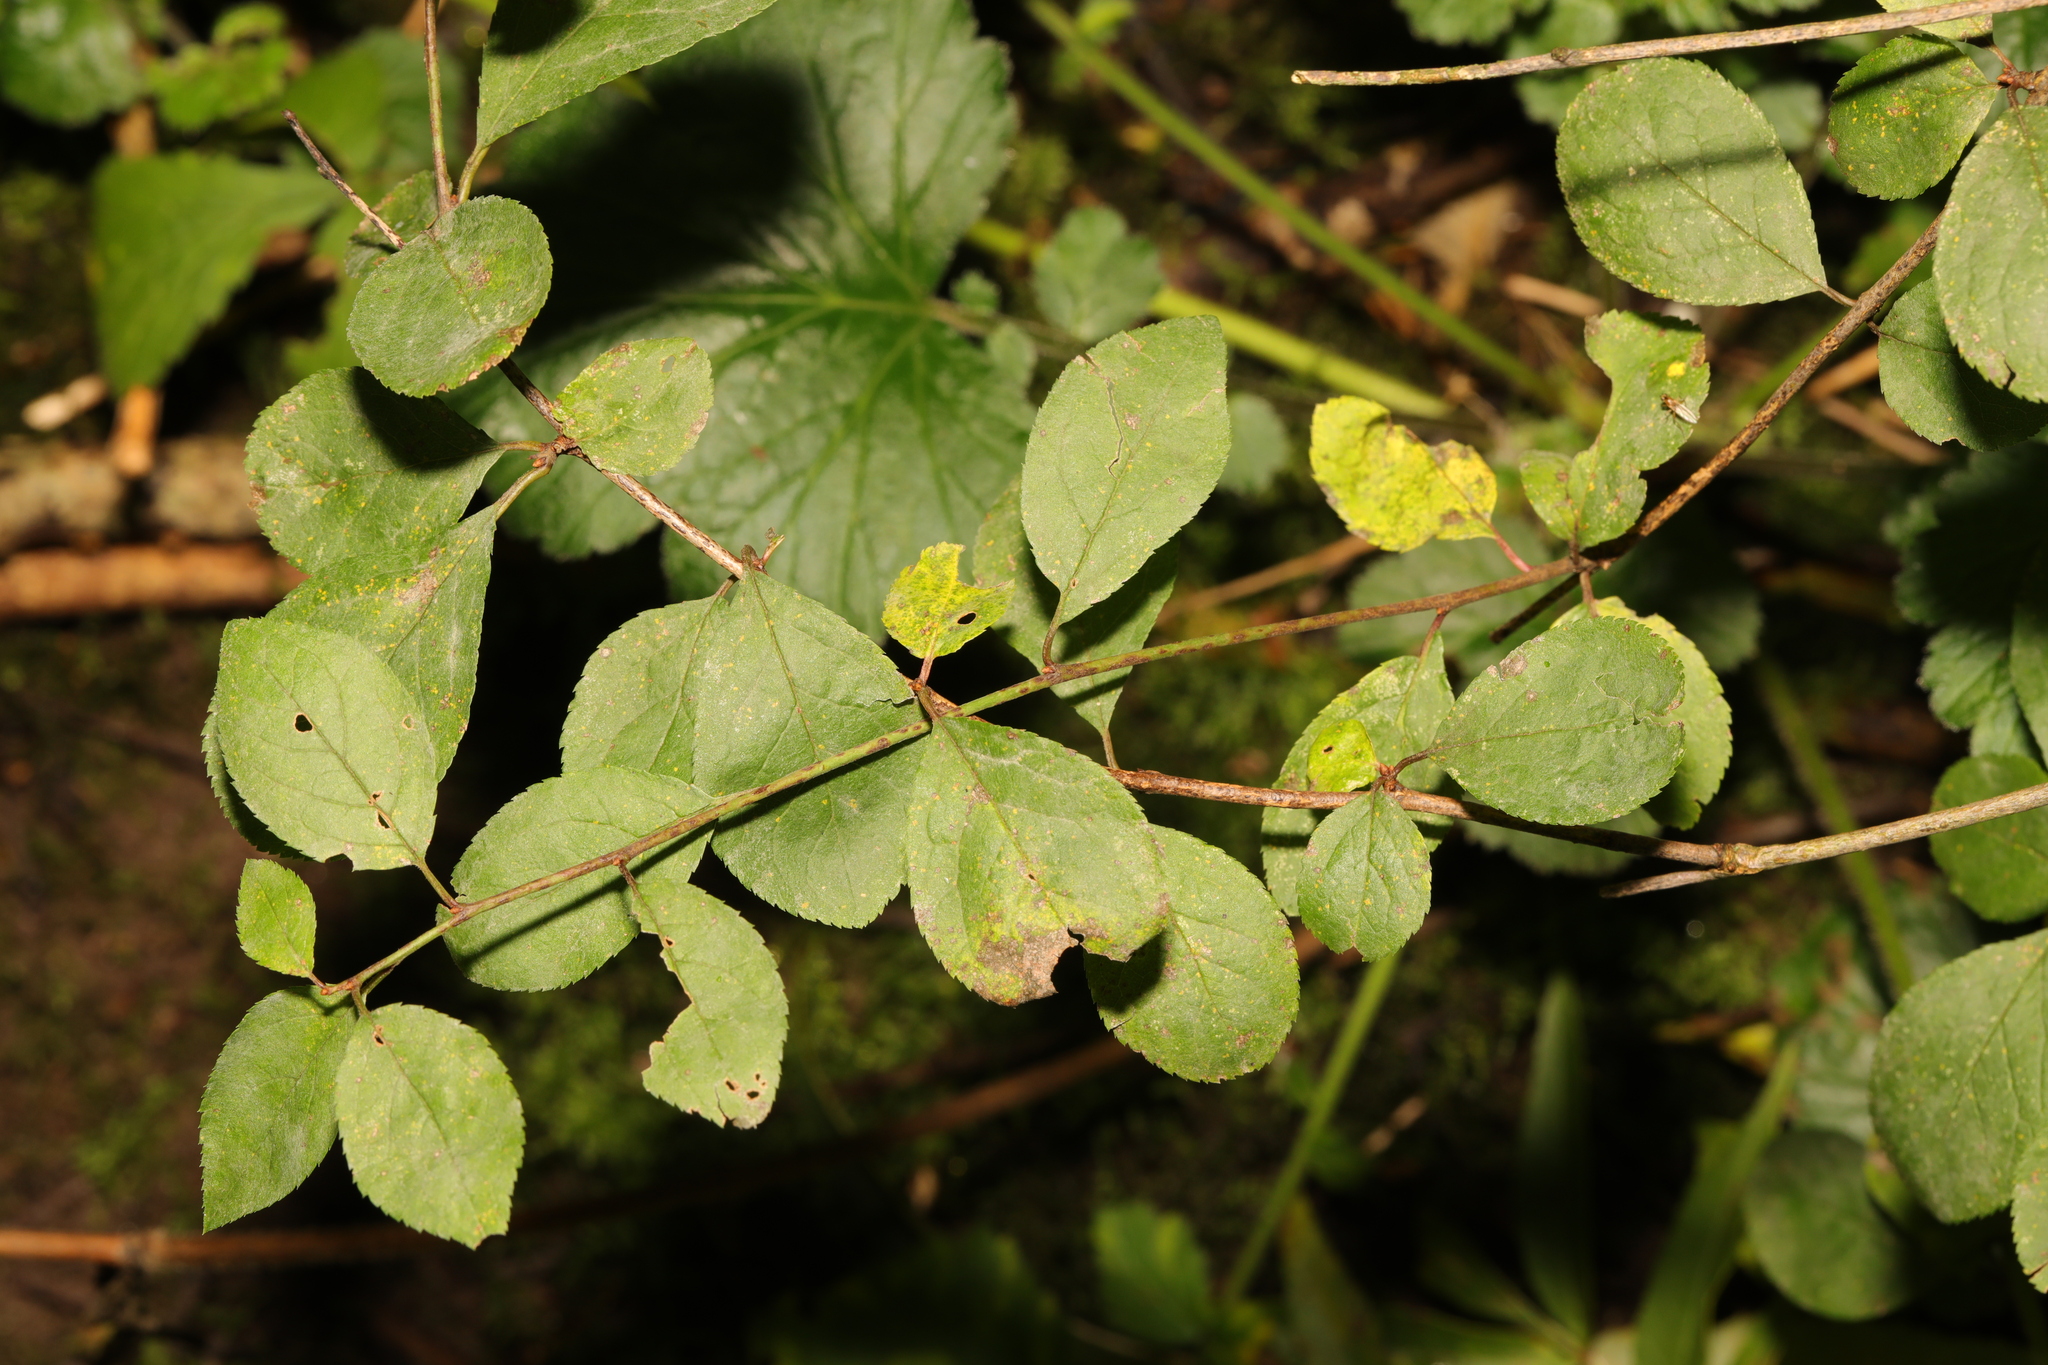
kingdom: Plantae
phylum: Tracheophyta
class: Magnoliopsida
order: Rosales
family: Rosaceae
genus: Prunus
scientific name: Prunus spinosa
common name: Blackthorn
